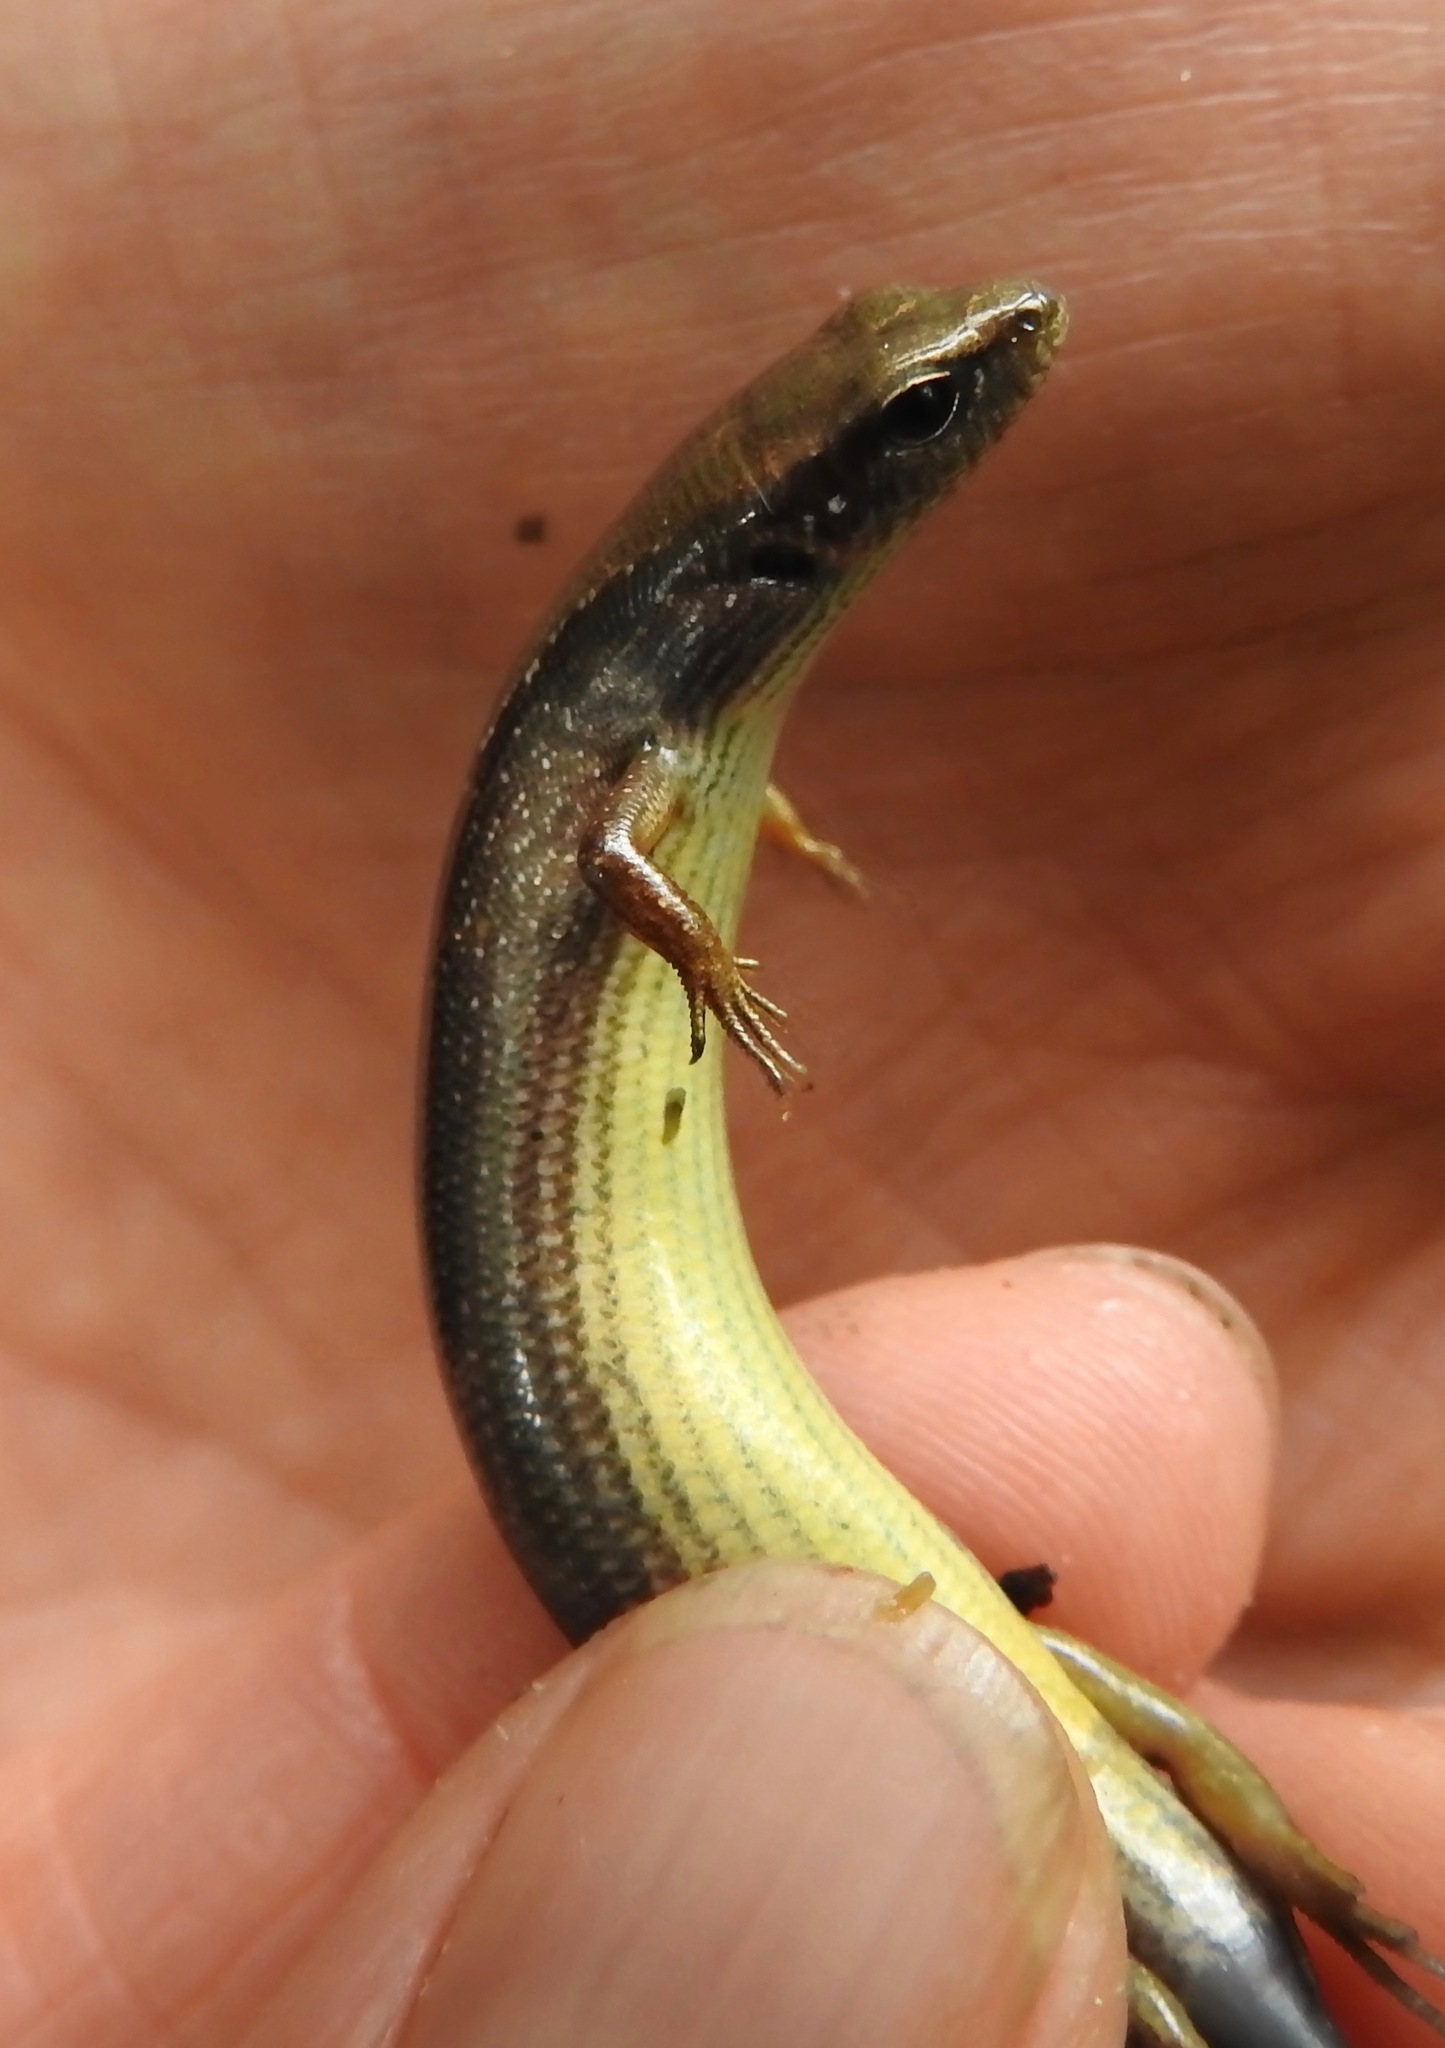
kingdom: Animalia
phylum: Chordata
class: Squamata
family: Scincidae
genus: Scincella
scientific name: Scincella lateralis
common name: Ground skink
